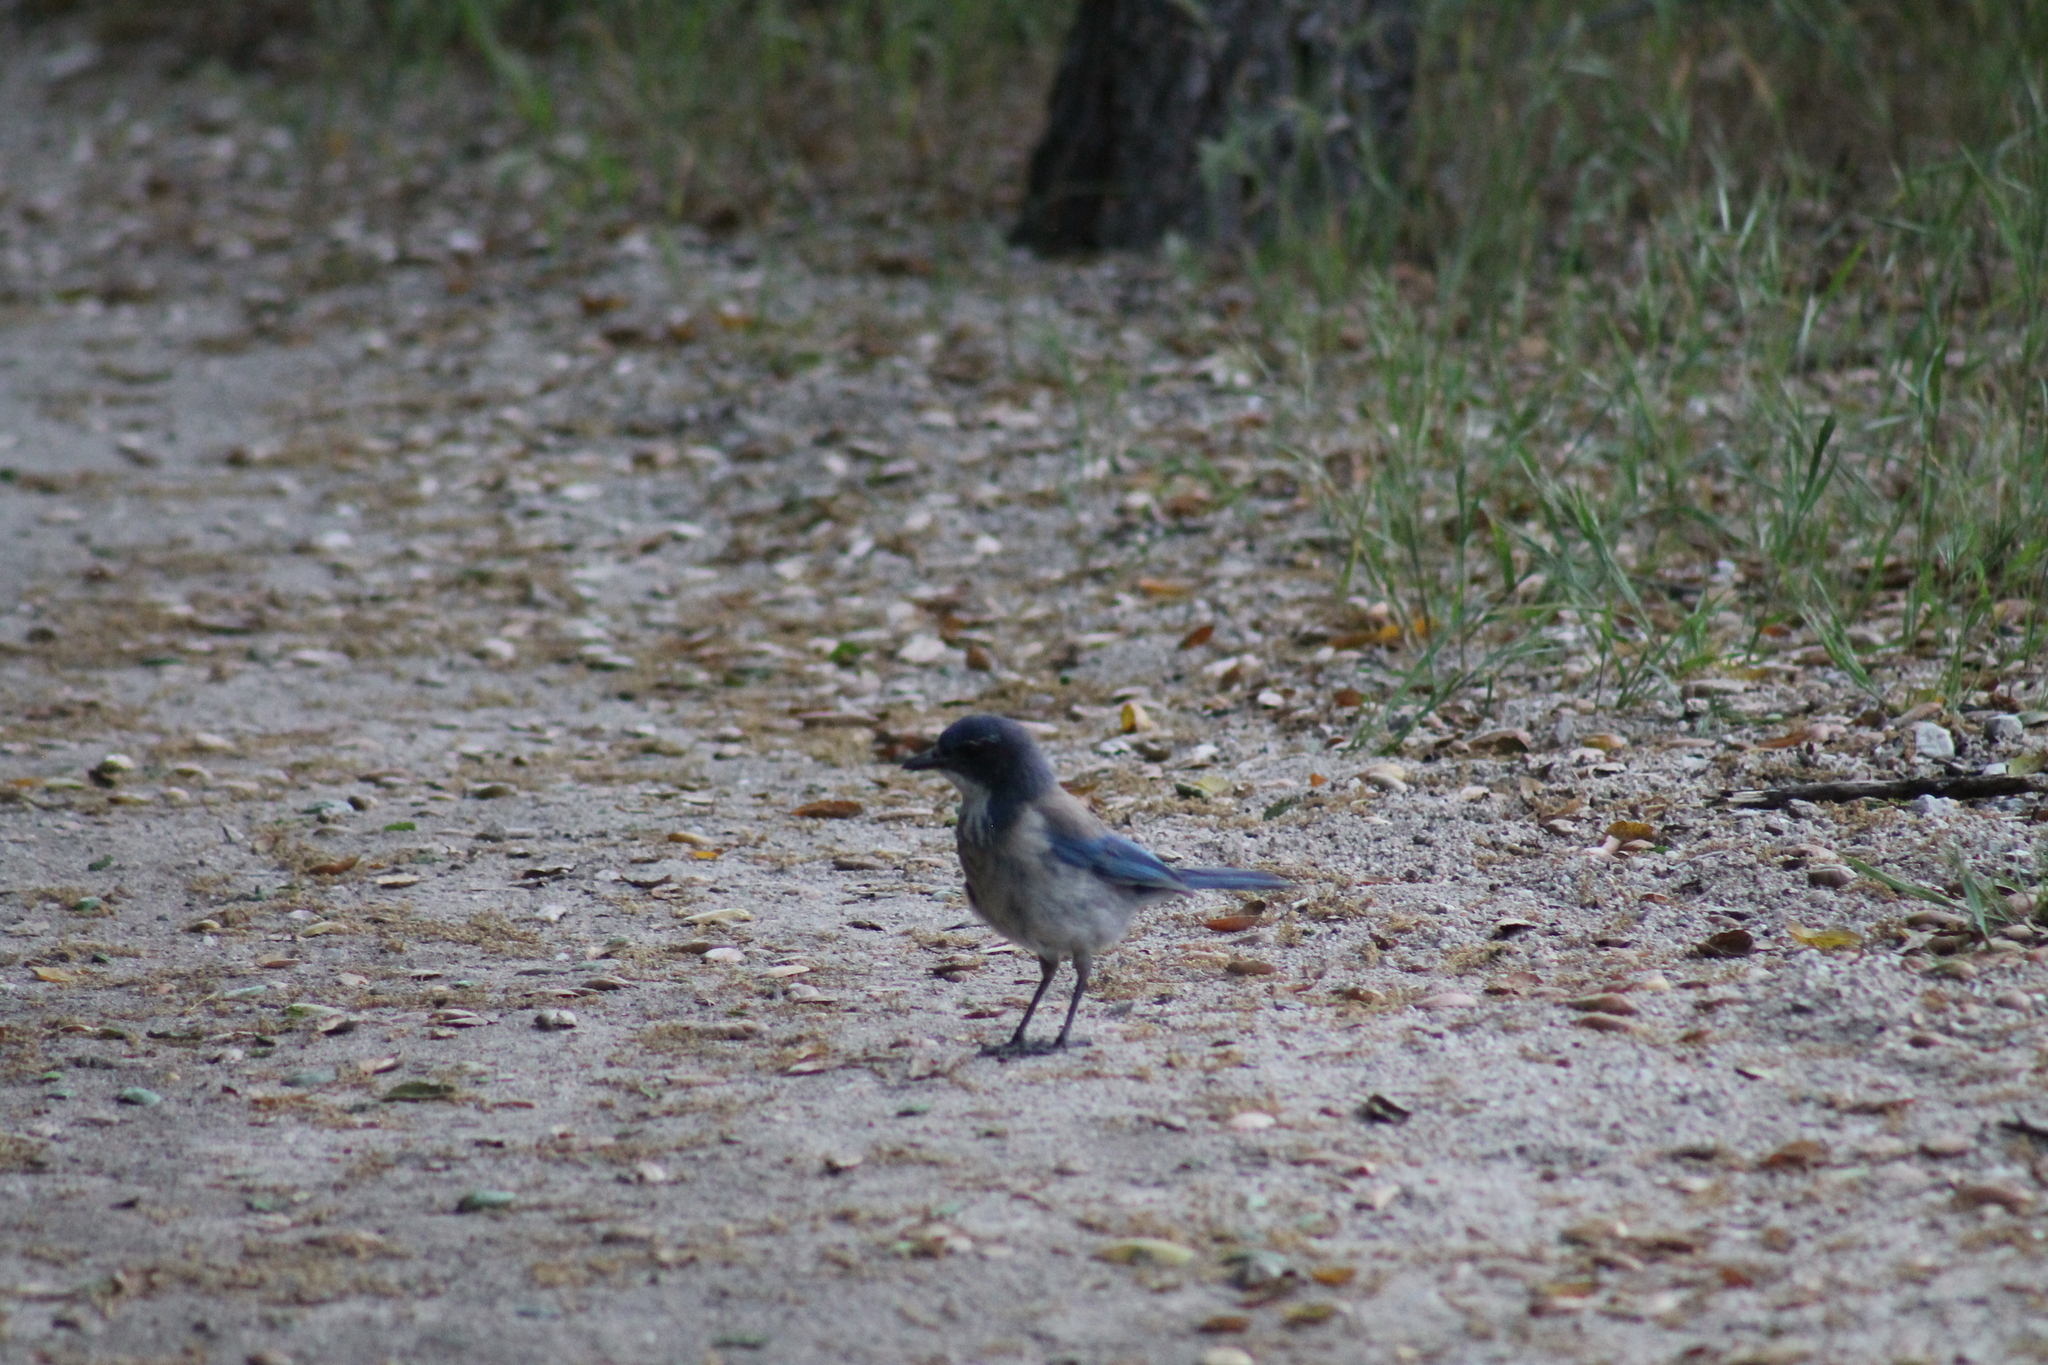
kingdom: Animalia
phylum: Chordata
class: Aves
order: Passeriformes
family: Corvidae
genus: Aphelocoma
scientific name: Aphelocoma californica
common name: California scrub-jay
